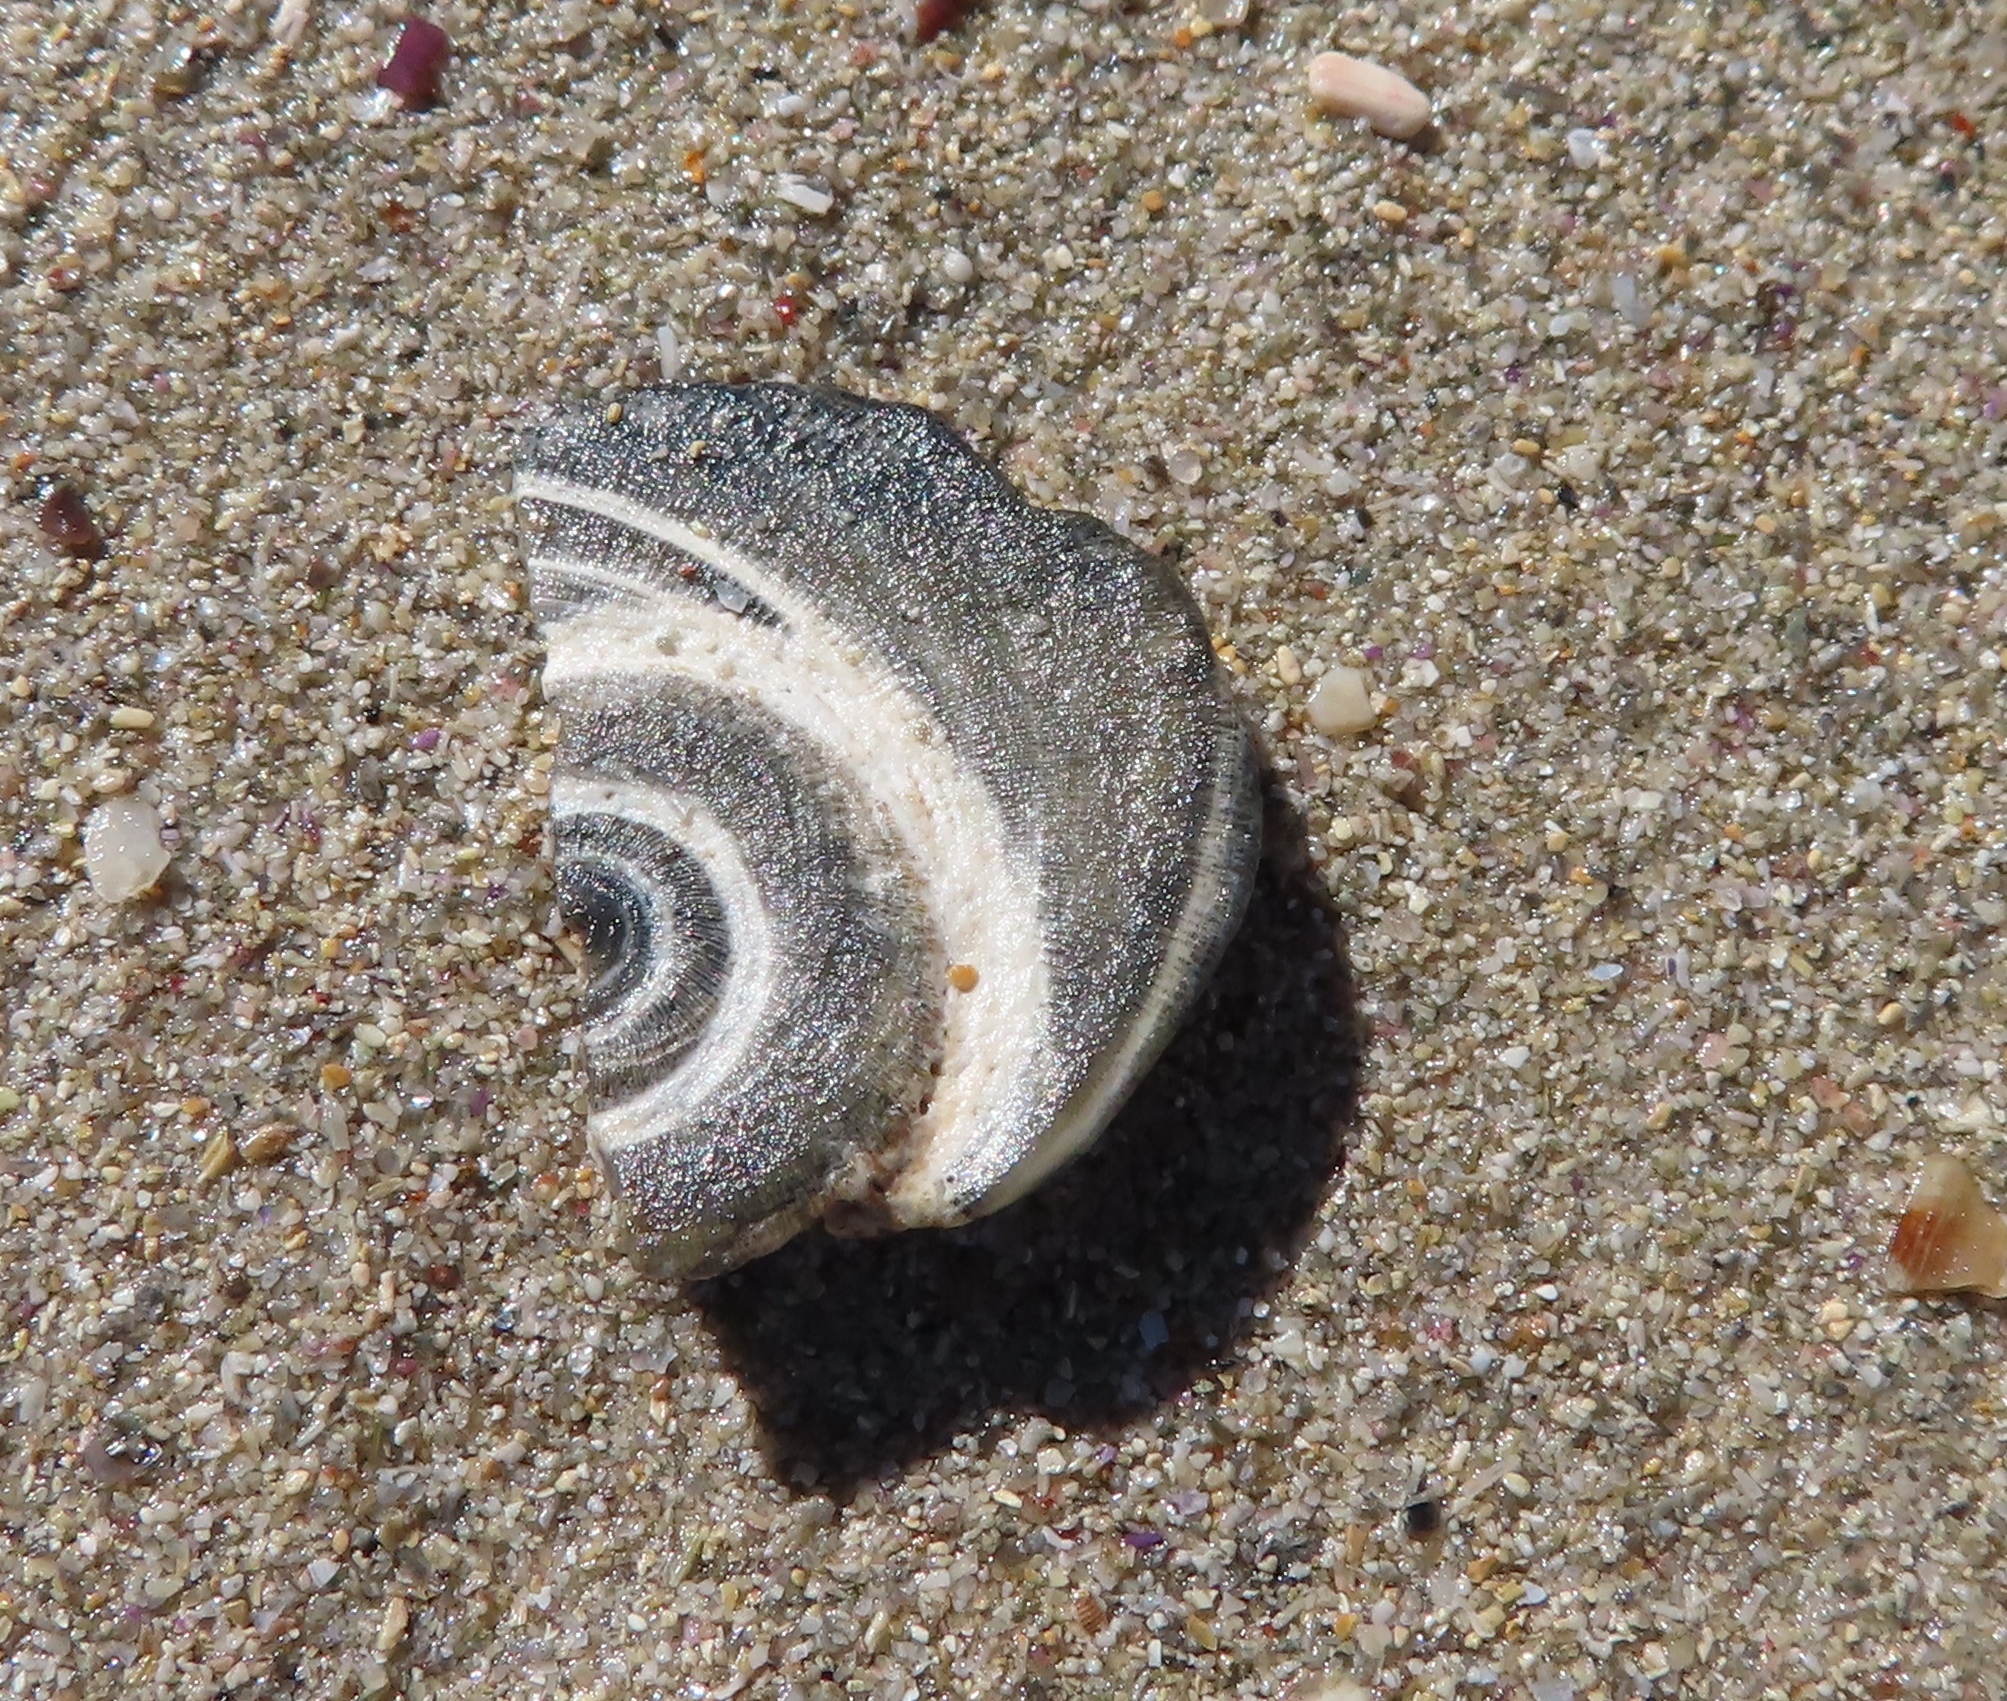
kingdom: Animalia
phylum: Mollusca
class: Gastropoda
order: Trochida
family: Turbinidae
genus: Turbo
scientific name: Turbo sarmaticus
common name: South african turban
